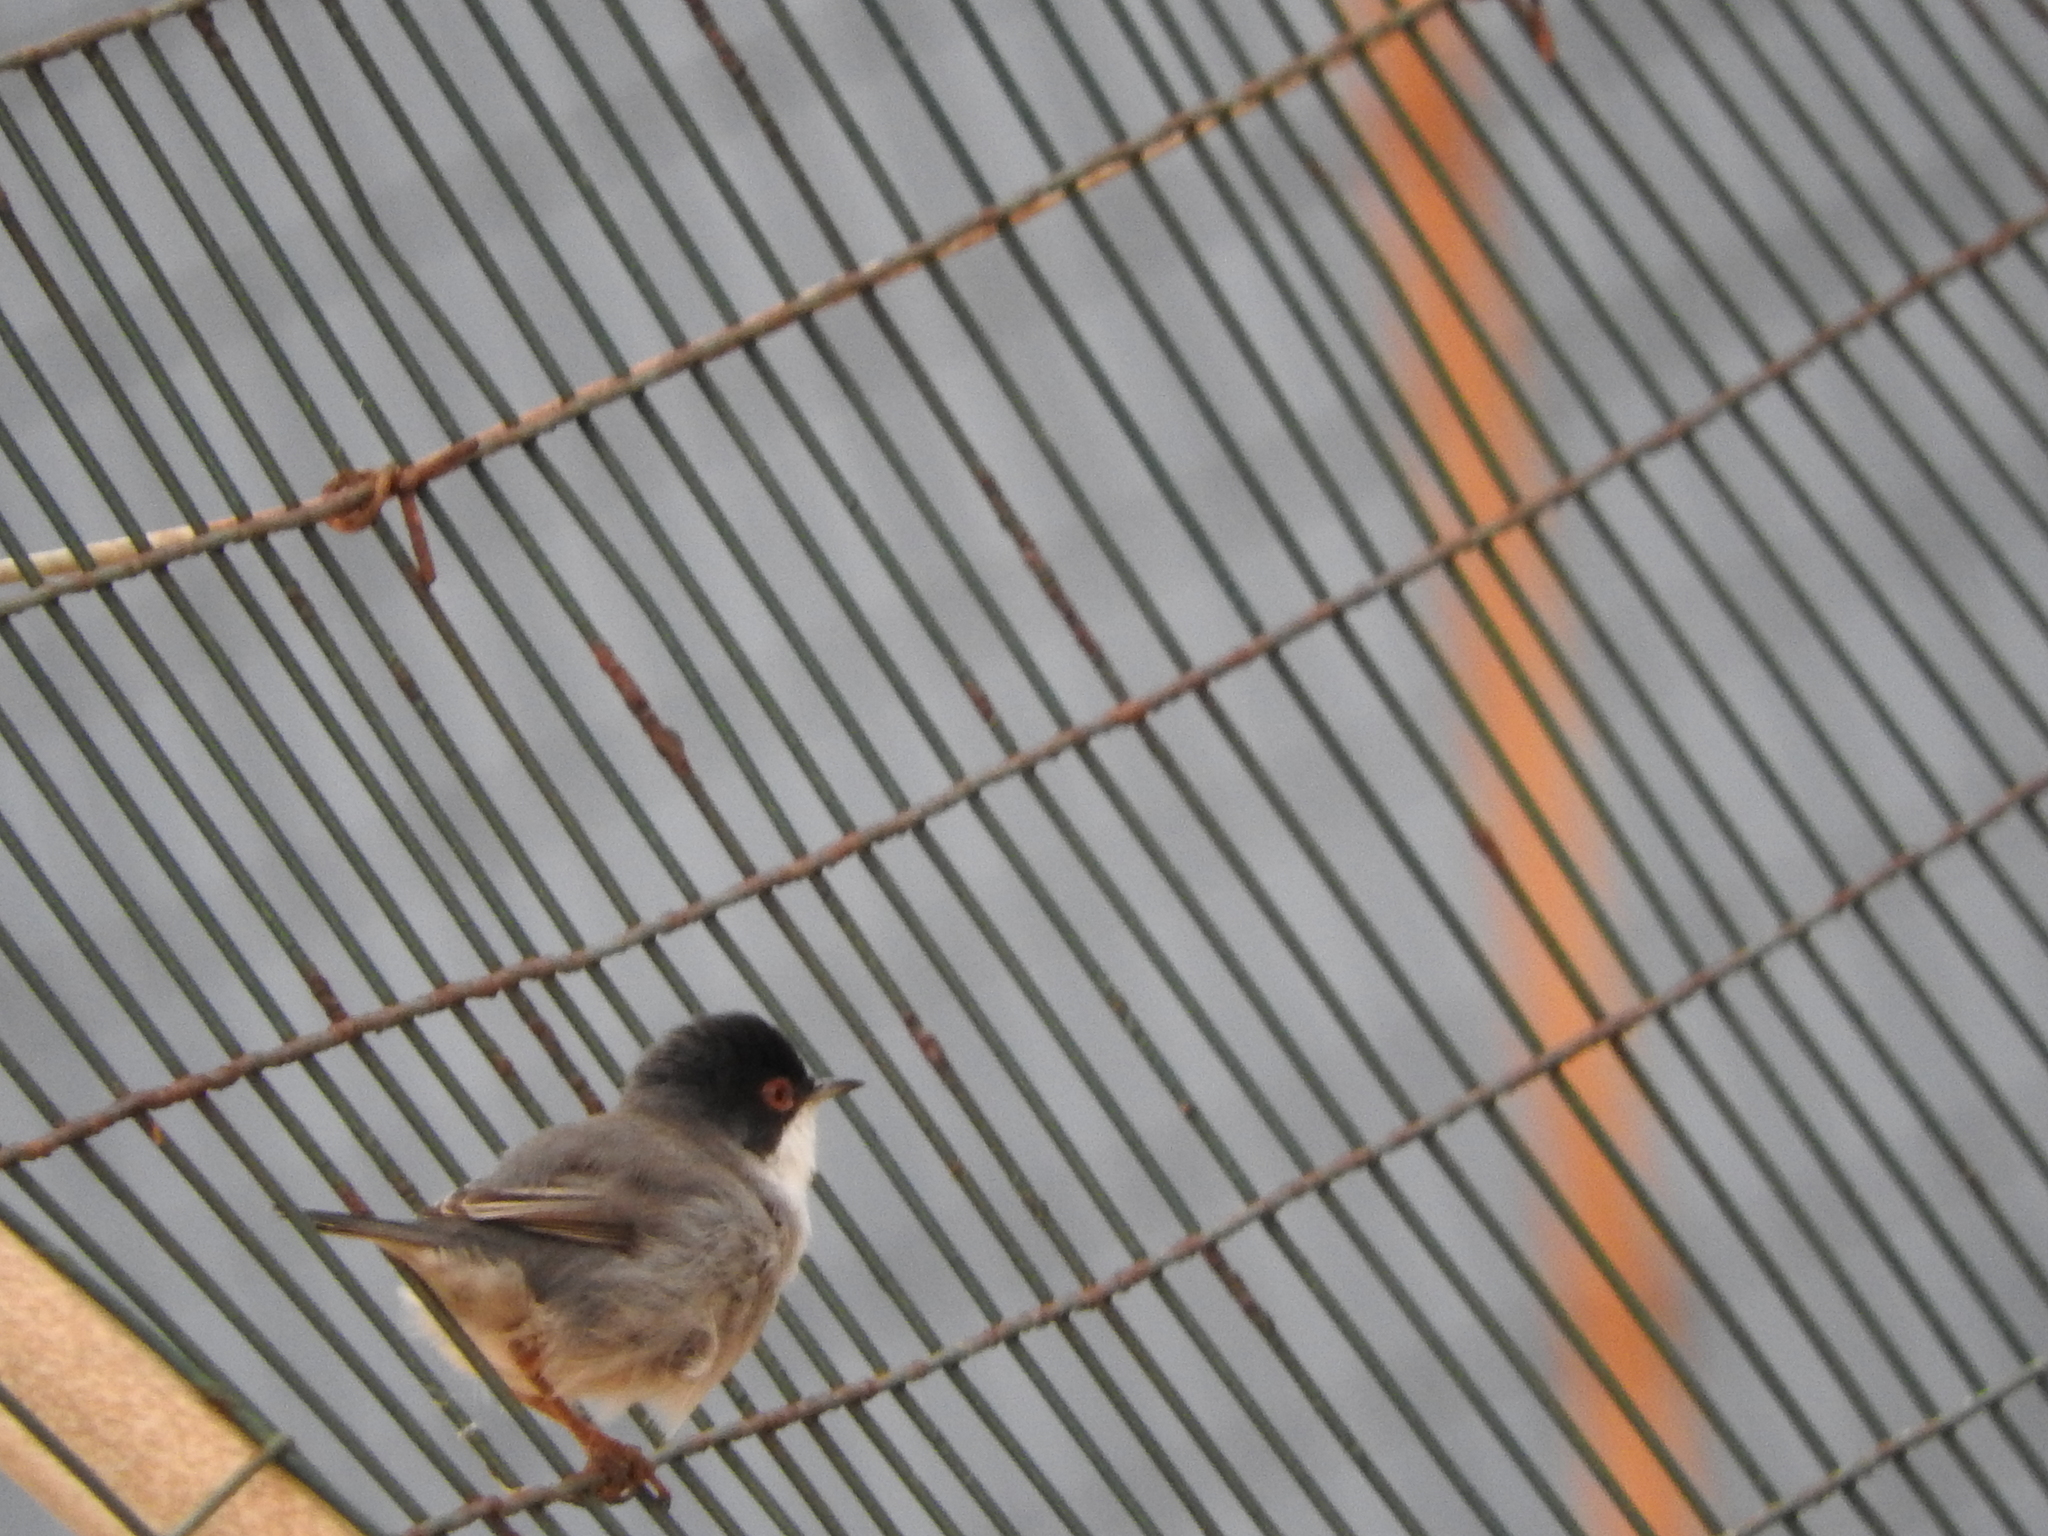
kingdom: Animalia
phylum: Chordata
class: Aves
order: Passeriformes
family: Sylviidae
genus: Curruca
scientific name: Curruca melanocephala
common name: Sardinian warbler
